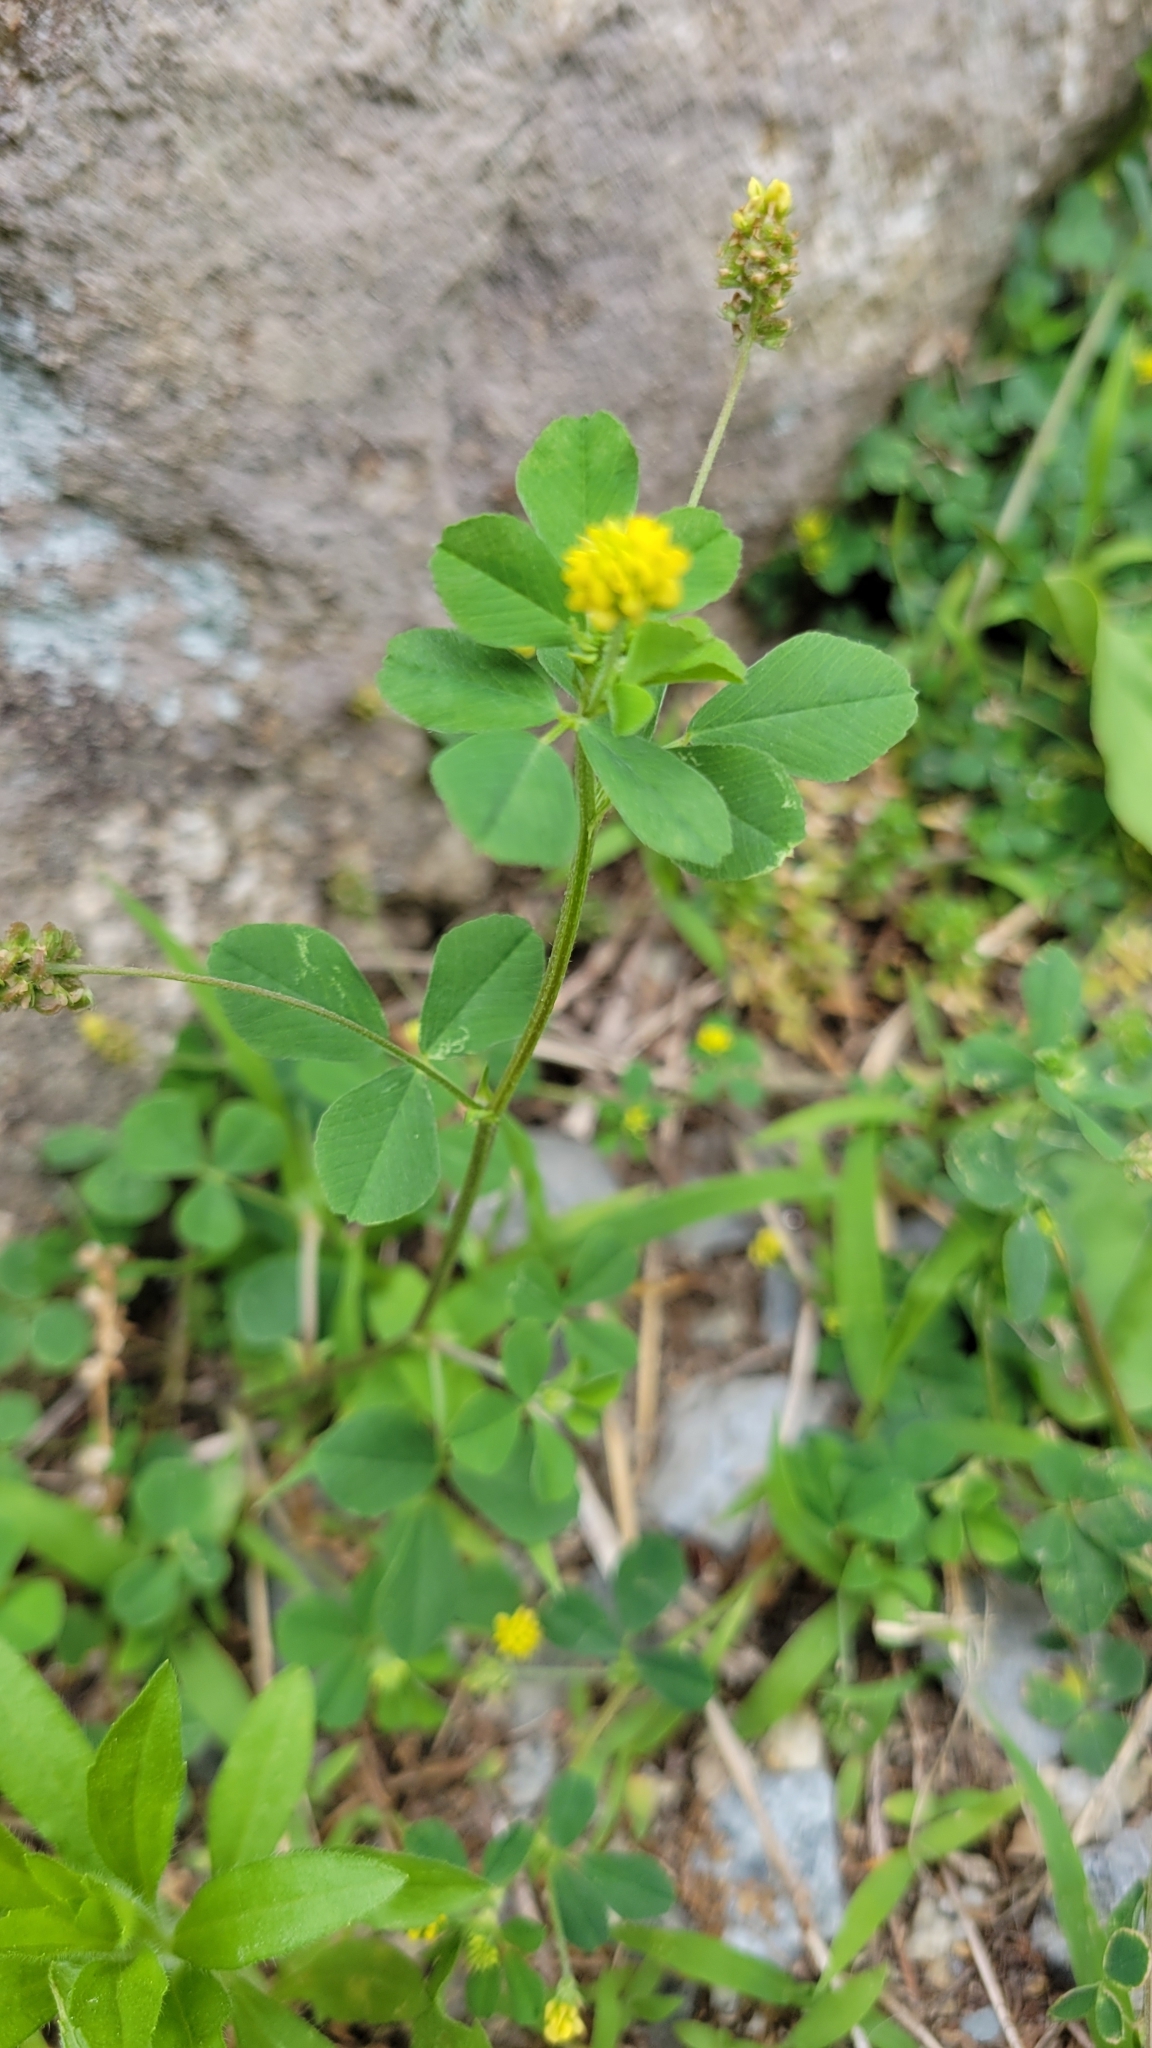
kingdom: Plantae
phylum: Tracheophyta
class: Magnoliopsida
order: Fabales
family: Fabaceae
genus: Medicago
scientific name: Medicago lupulina
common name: Black medick
